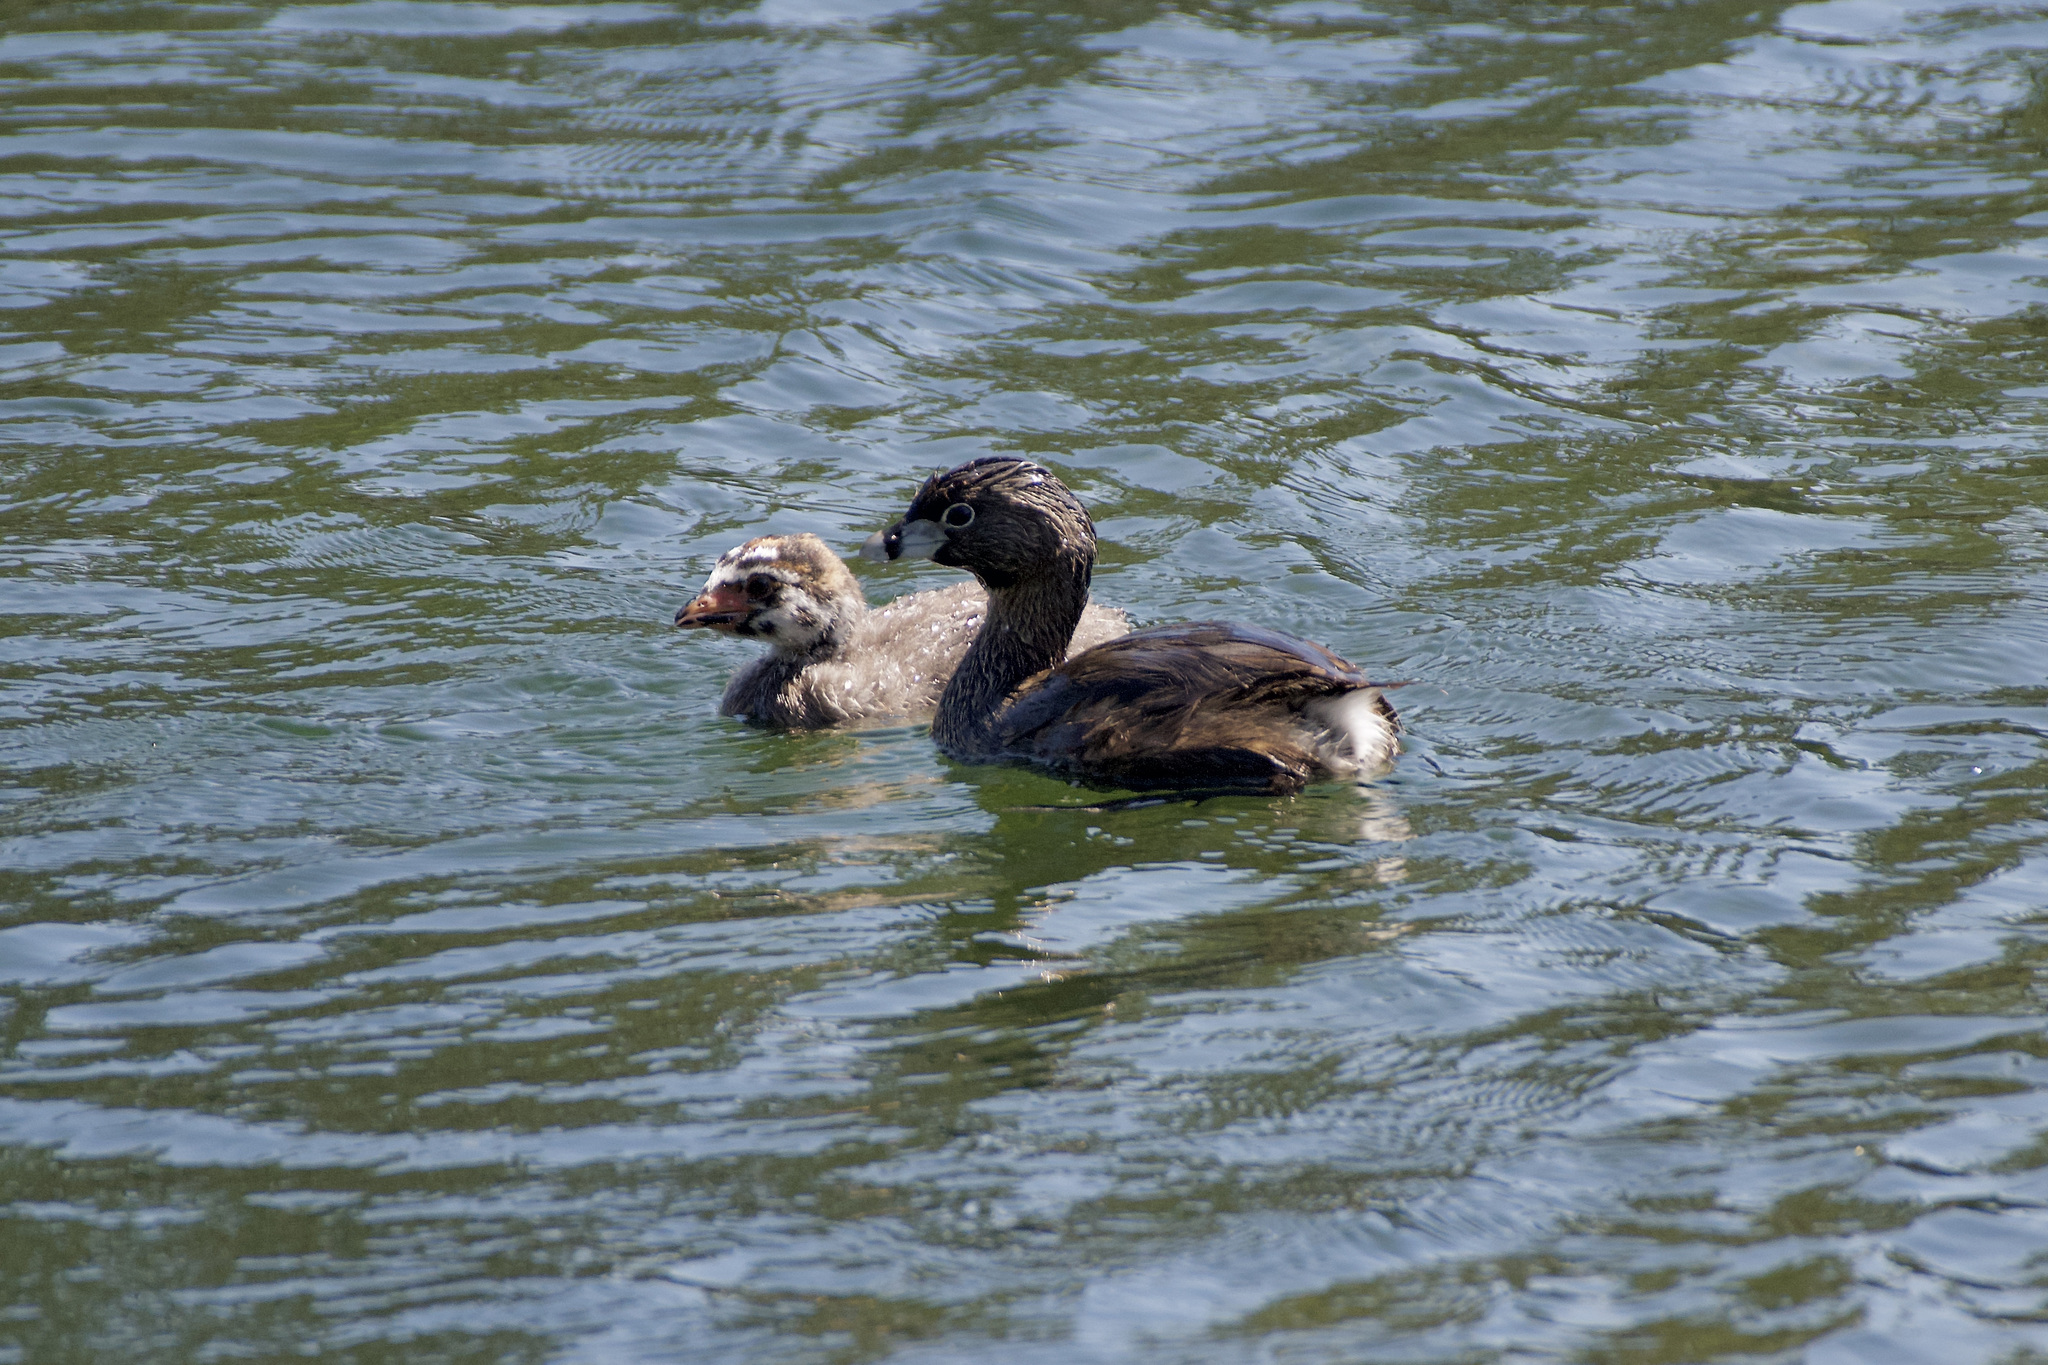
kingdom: Animalia
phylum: Chordata
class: Aves
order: Podicipediformes
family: Podicipedidae
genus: Podilymbus
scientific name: Podilymbus podiceps
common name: Pied-billed grebe
